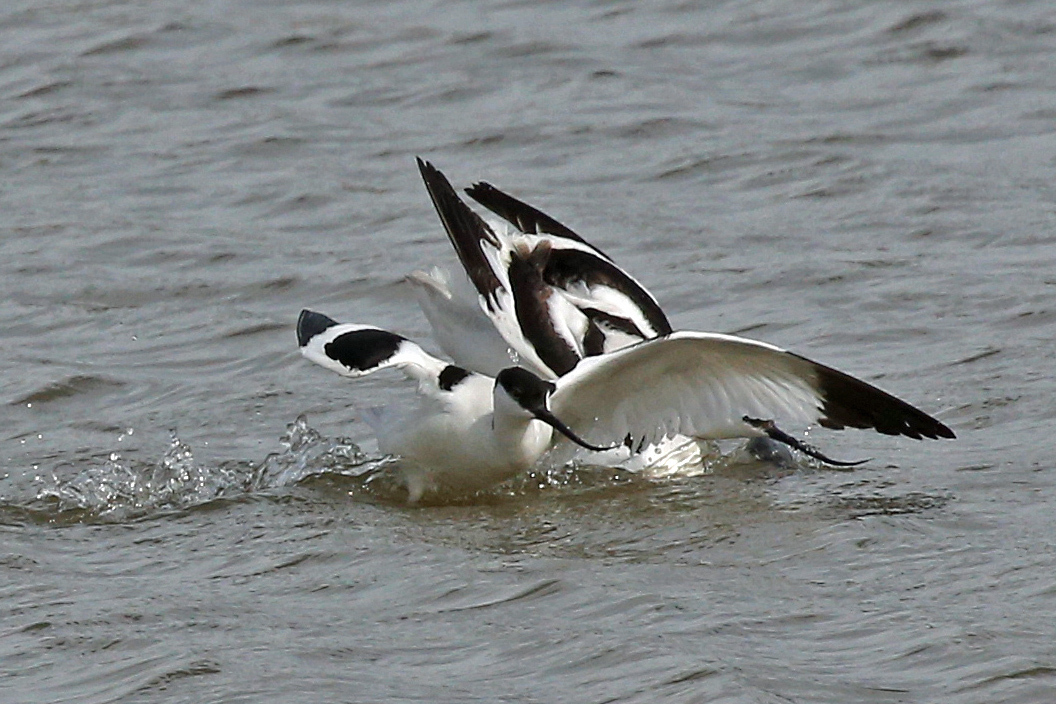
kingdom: Animalia
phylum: Chordata
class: Aves
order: Charadriiformes
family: Recurvirostridae
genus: Recurvirostra
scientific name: Recurvirostra avosetta
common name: Pied avocet
